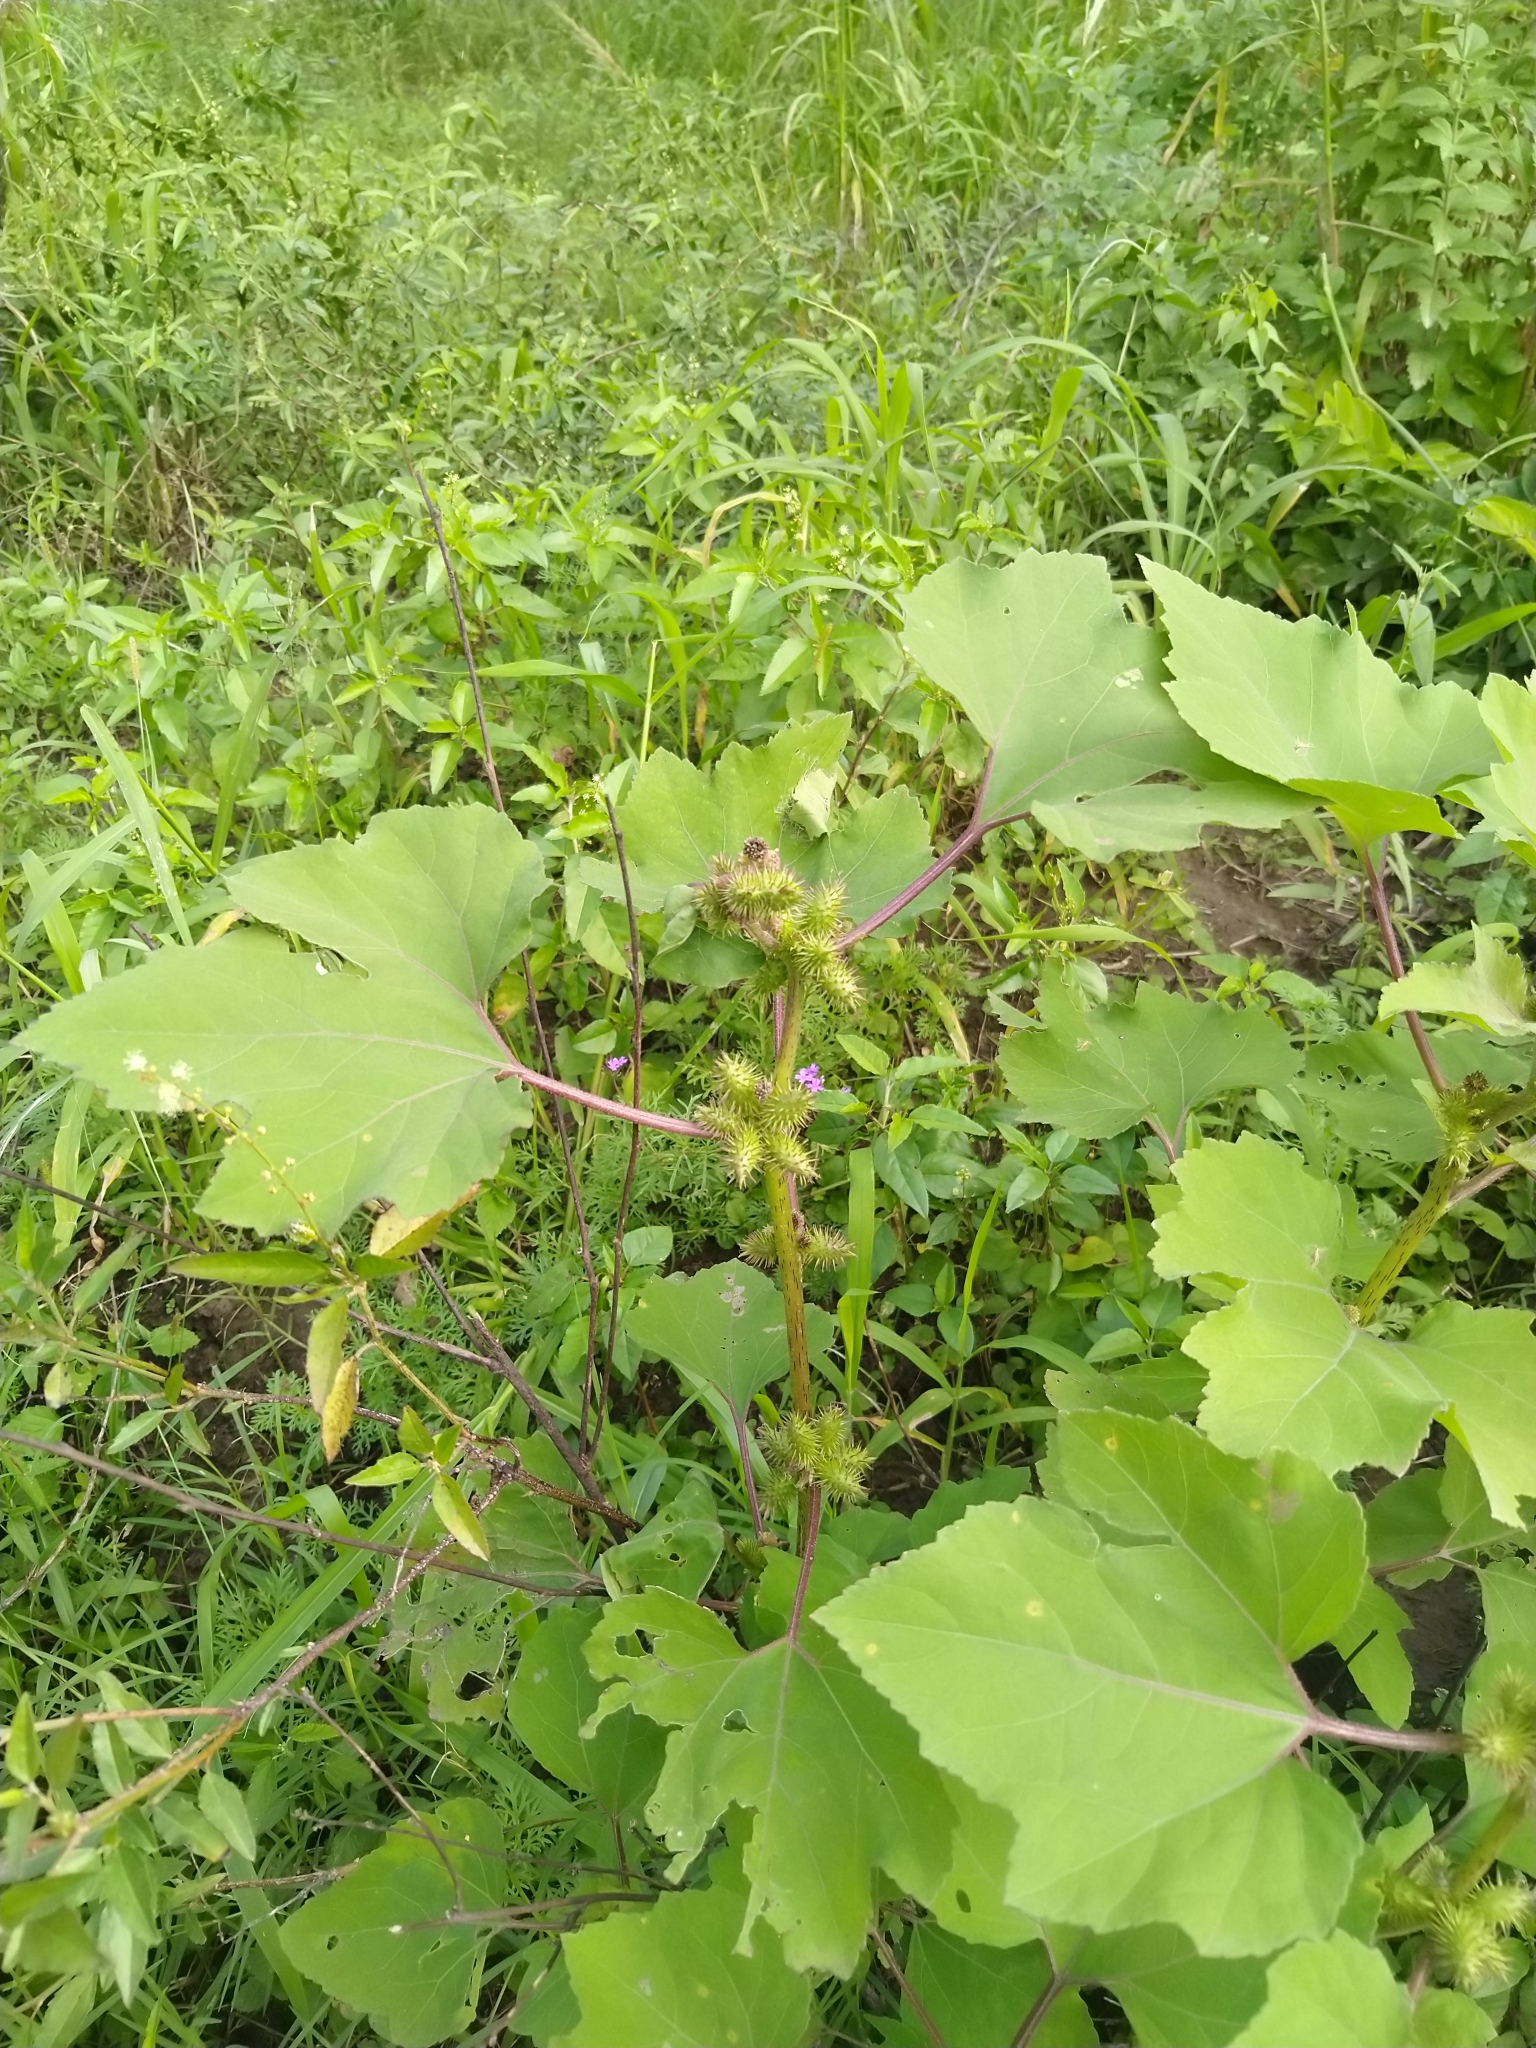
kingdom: Plantae
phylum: Tracheophyta
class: Magnoliopsida
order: Asterales
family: Asteraceae
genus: Xanthium
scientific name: Xanthium strumarium
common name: Rough cocklebur
